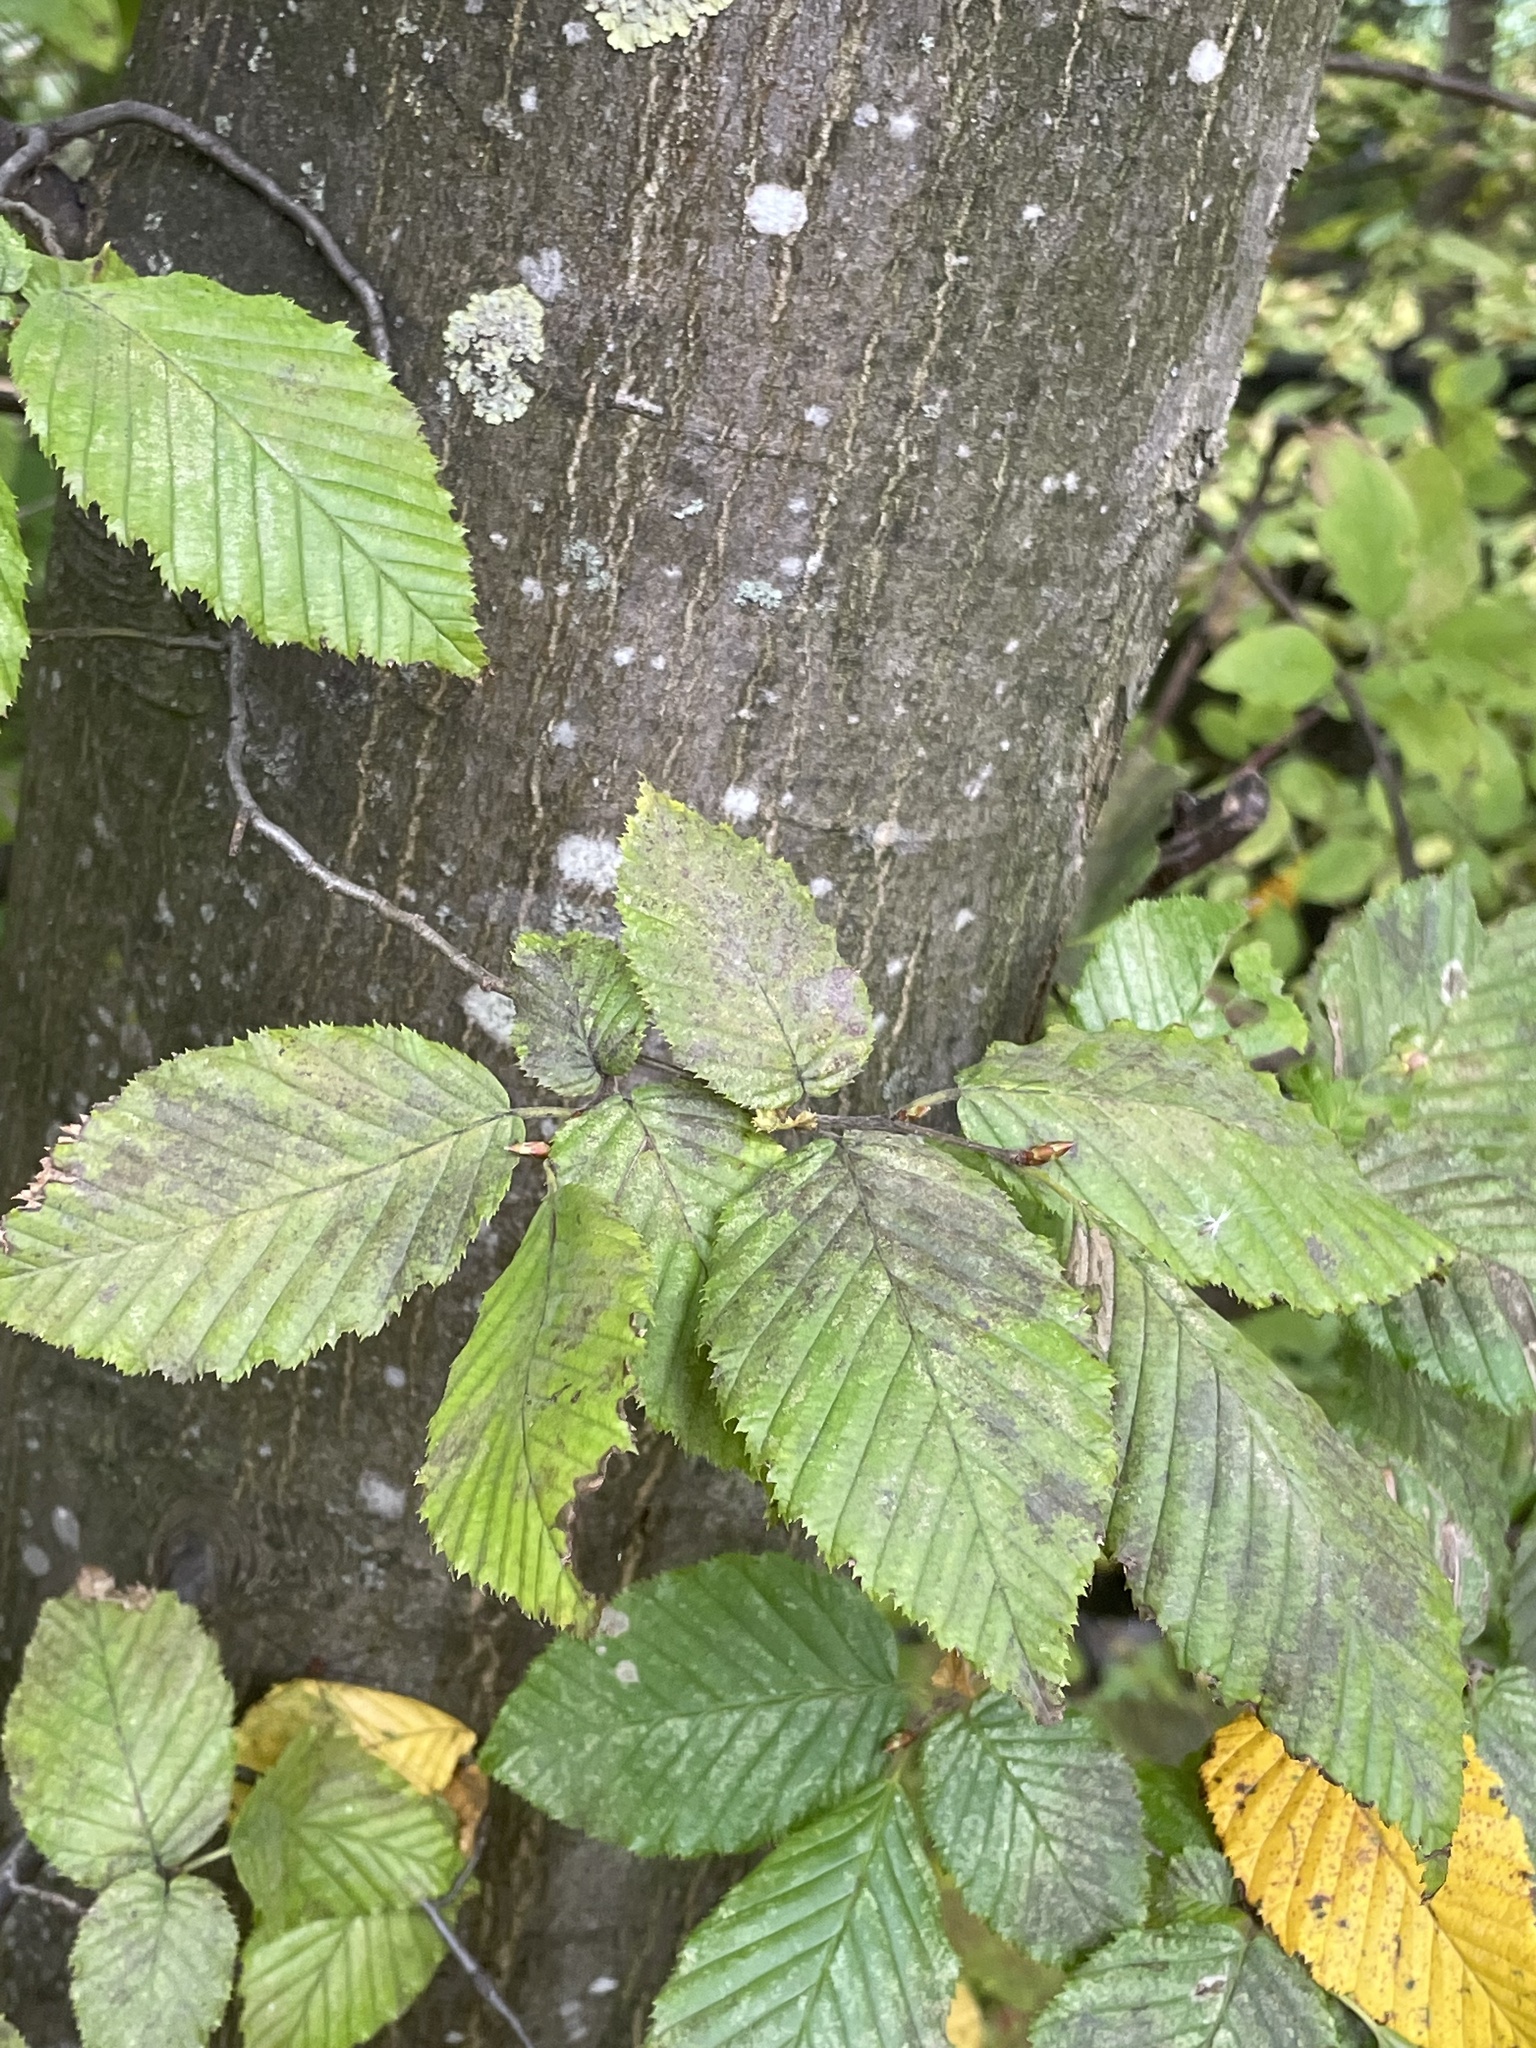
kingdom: Plantae
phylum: Tracheophyta
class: Magnoliopsida
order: Fagales
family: Betulaceae
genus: Carpinus
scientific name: Carpinus betulus
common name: Hornbeam
